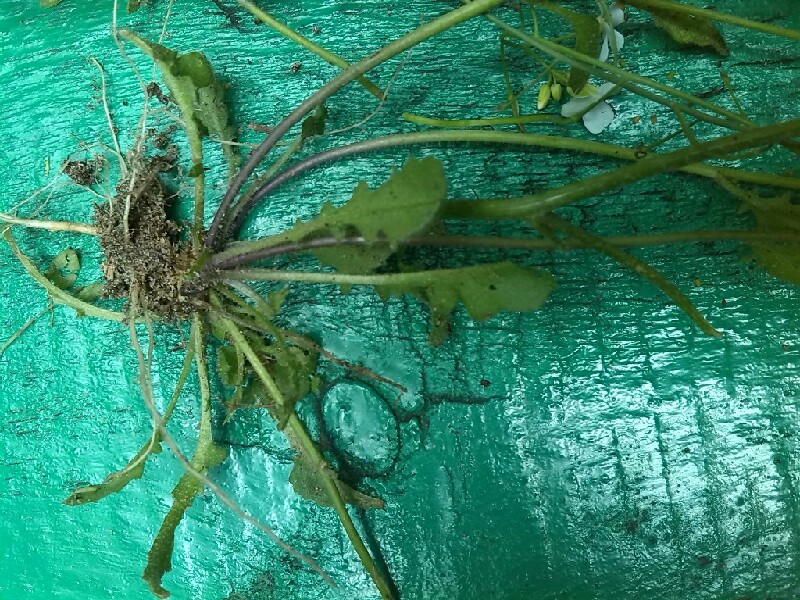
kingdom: Plantae
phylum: Tracheophyta
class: Magnoliopsida
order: Brassicales
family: Brassicaceae
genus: Arabidopsis
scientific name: Arabidopsis arenosa
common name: Sand rock-cress
